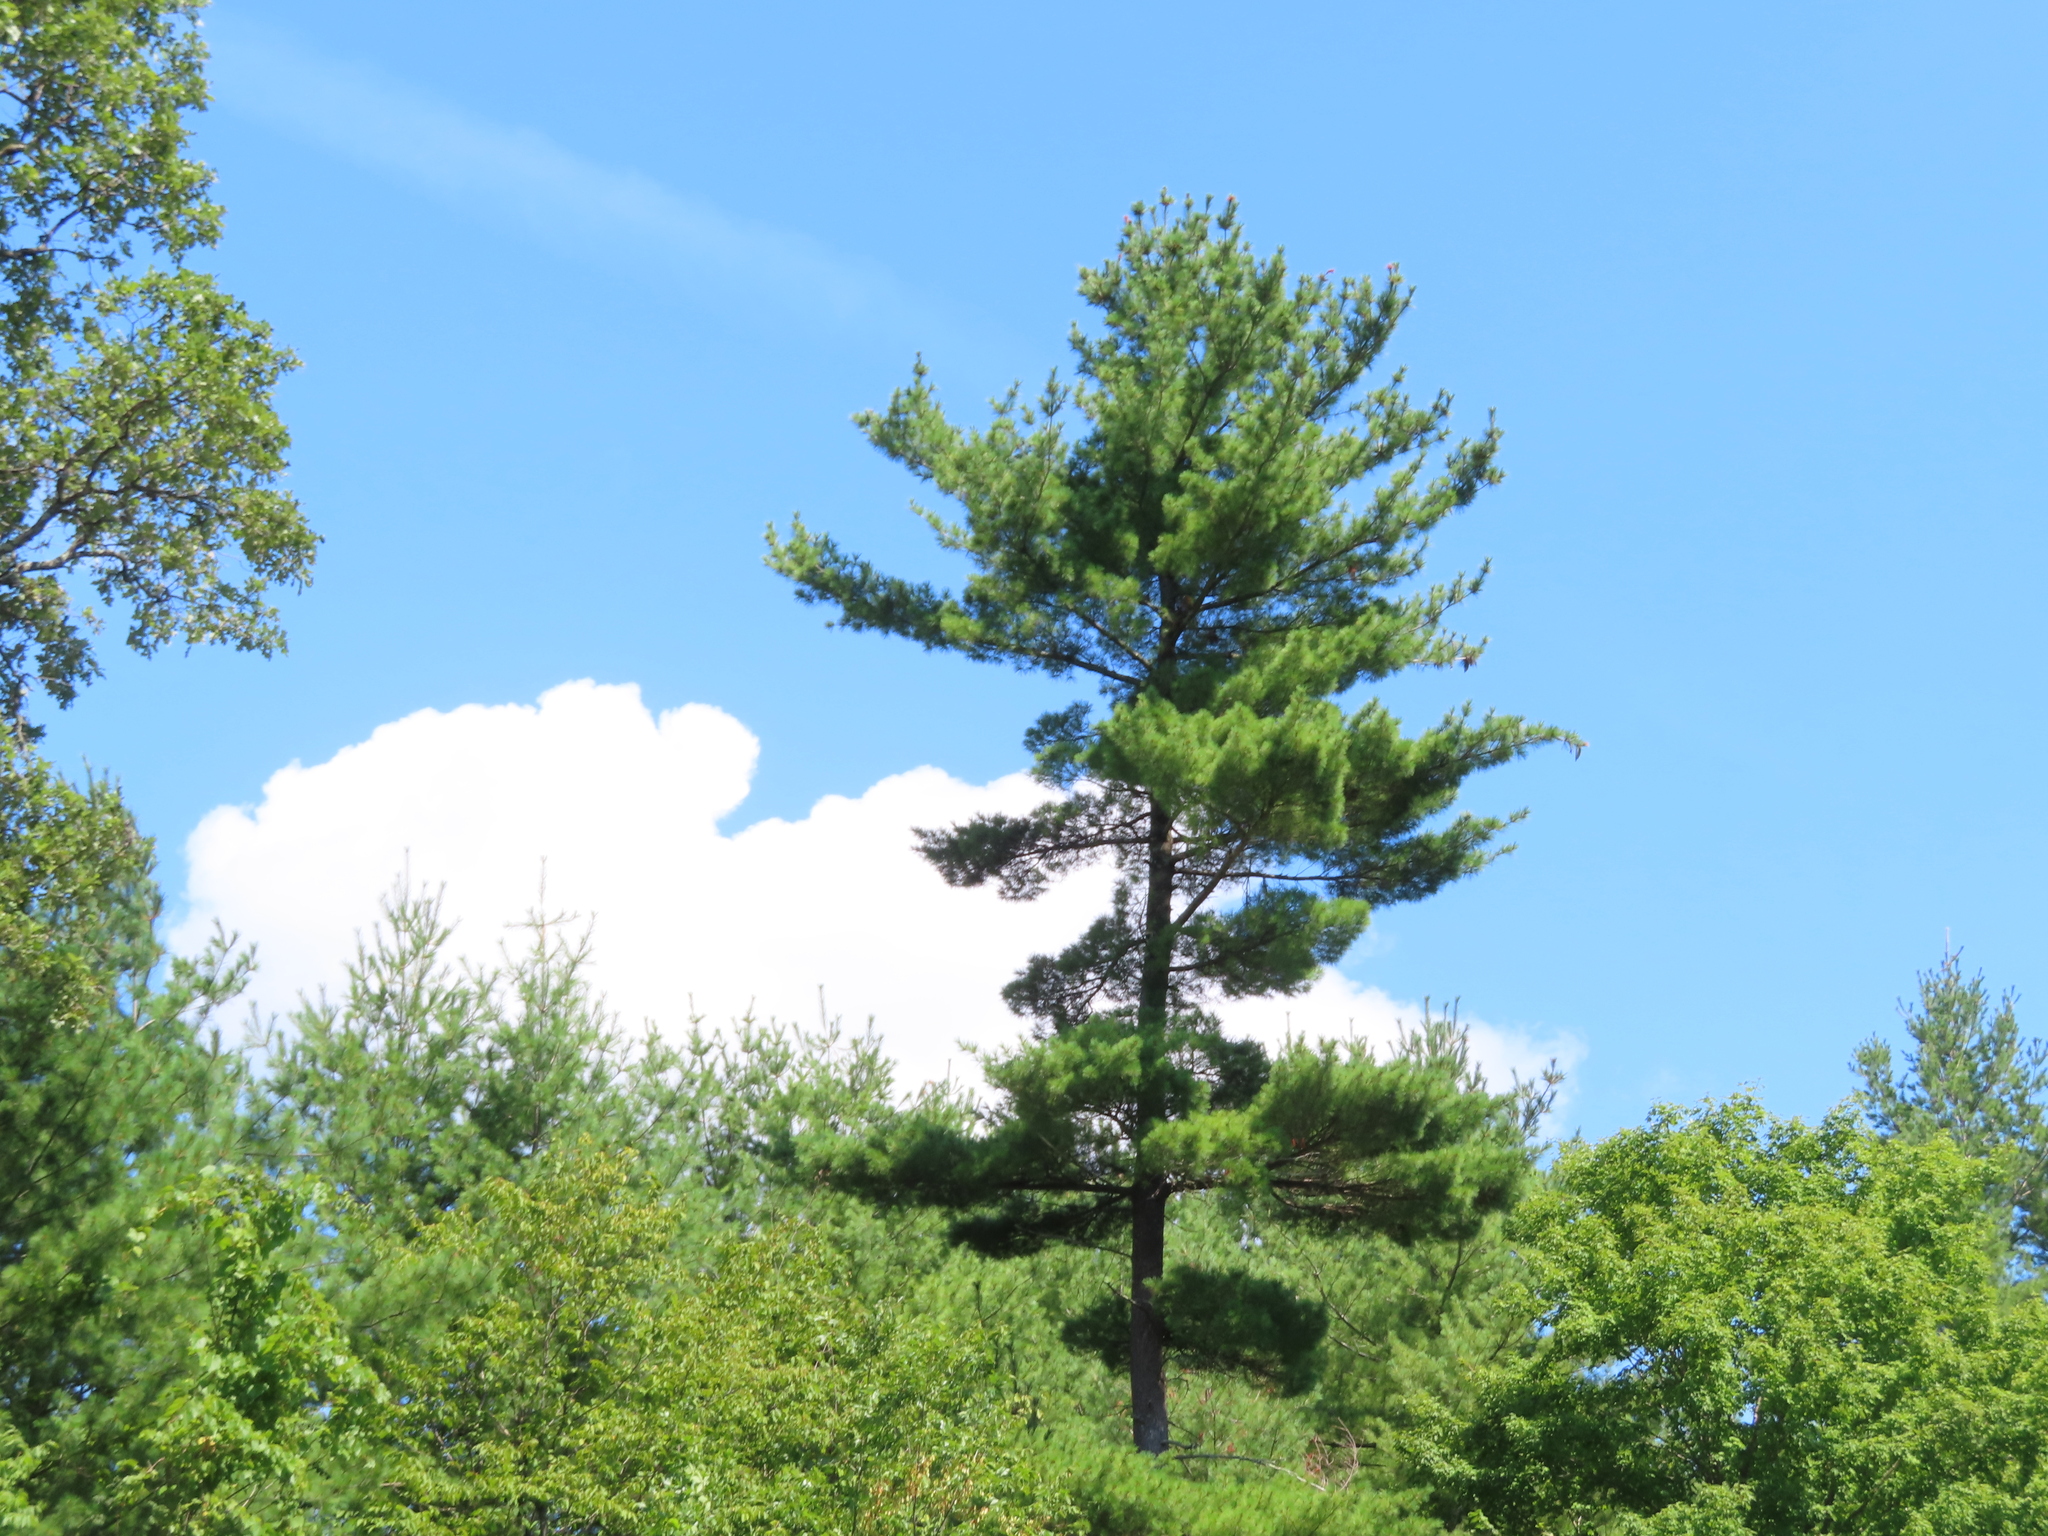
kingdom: Plantae
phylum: Tracheophyta
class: Pinopsida
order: Pinales
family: Pinaceae
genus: Pinus
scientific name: Pinus strobus
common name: Weymouth pine
